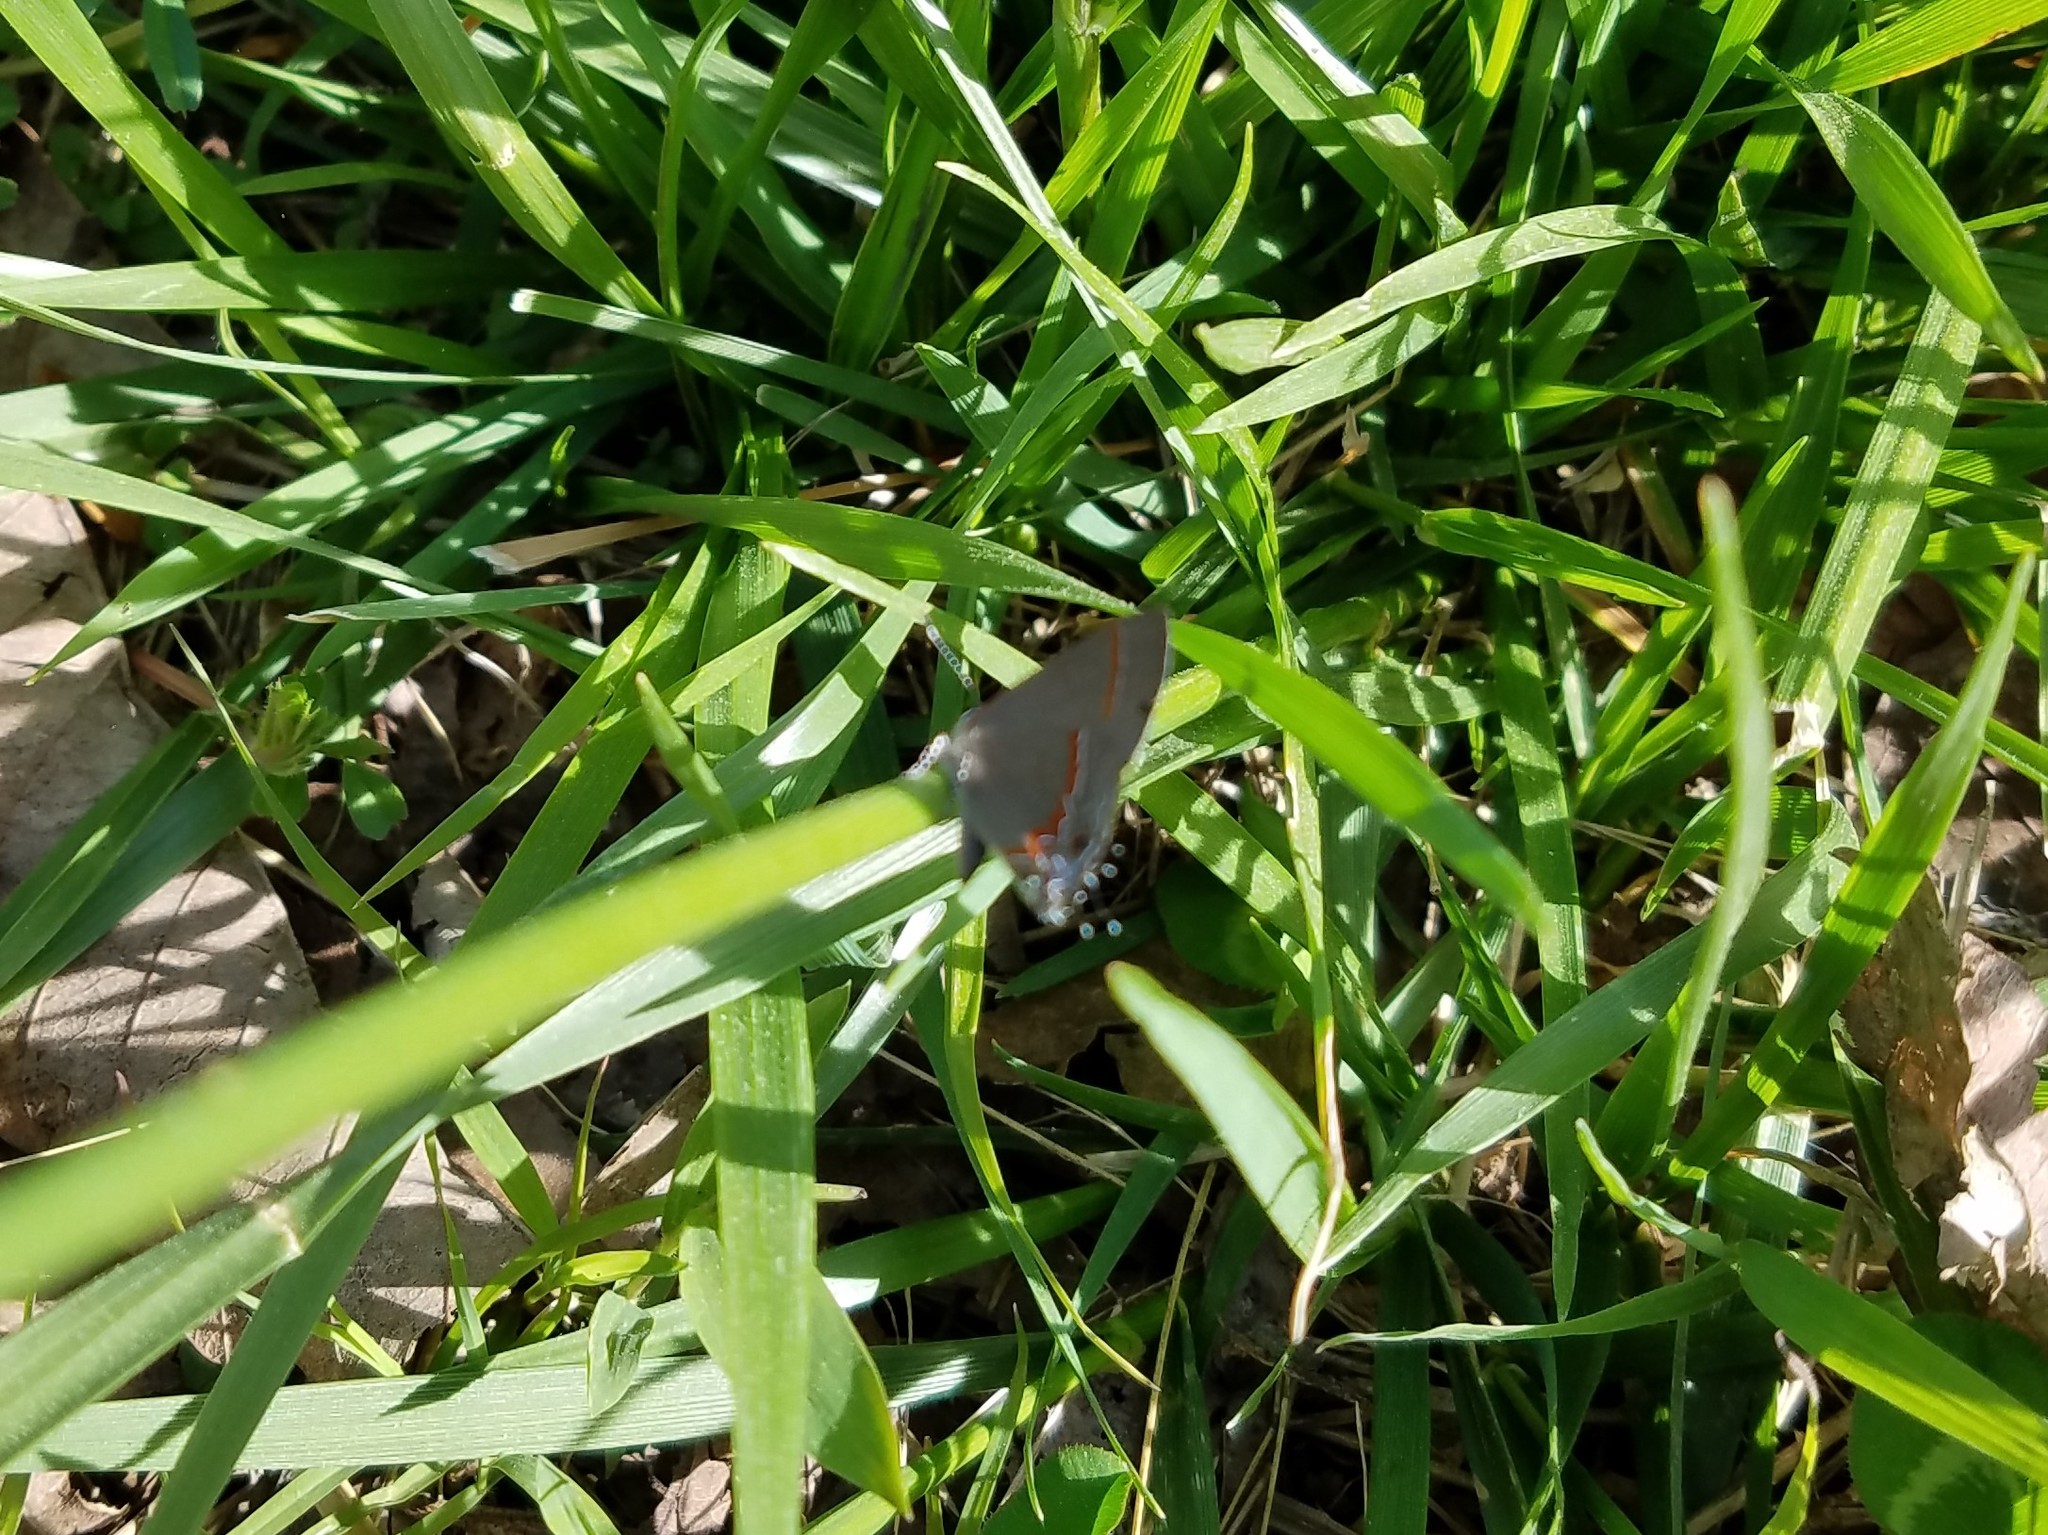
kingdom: Animalia
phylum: Arthropoda
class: Insecta
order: Lepidoptera
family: Lycaenidae
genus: Calycopis
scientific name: Calycopis cecrops
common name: Red-banded hairstreak
